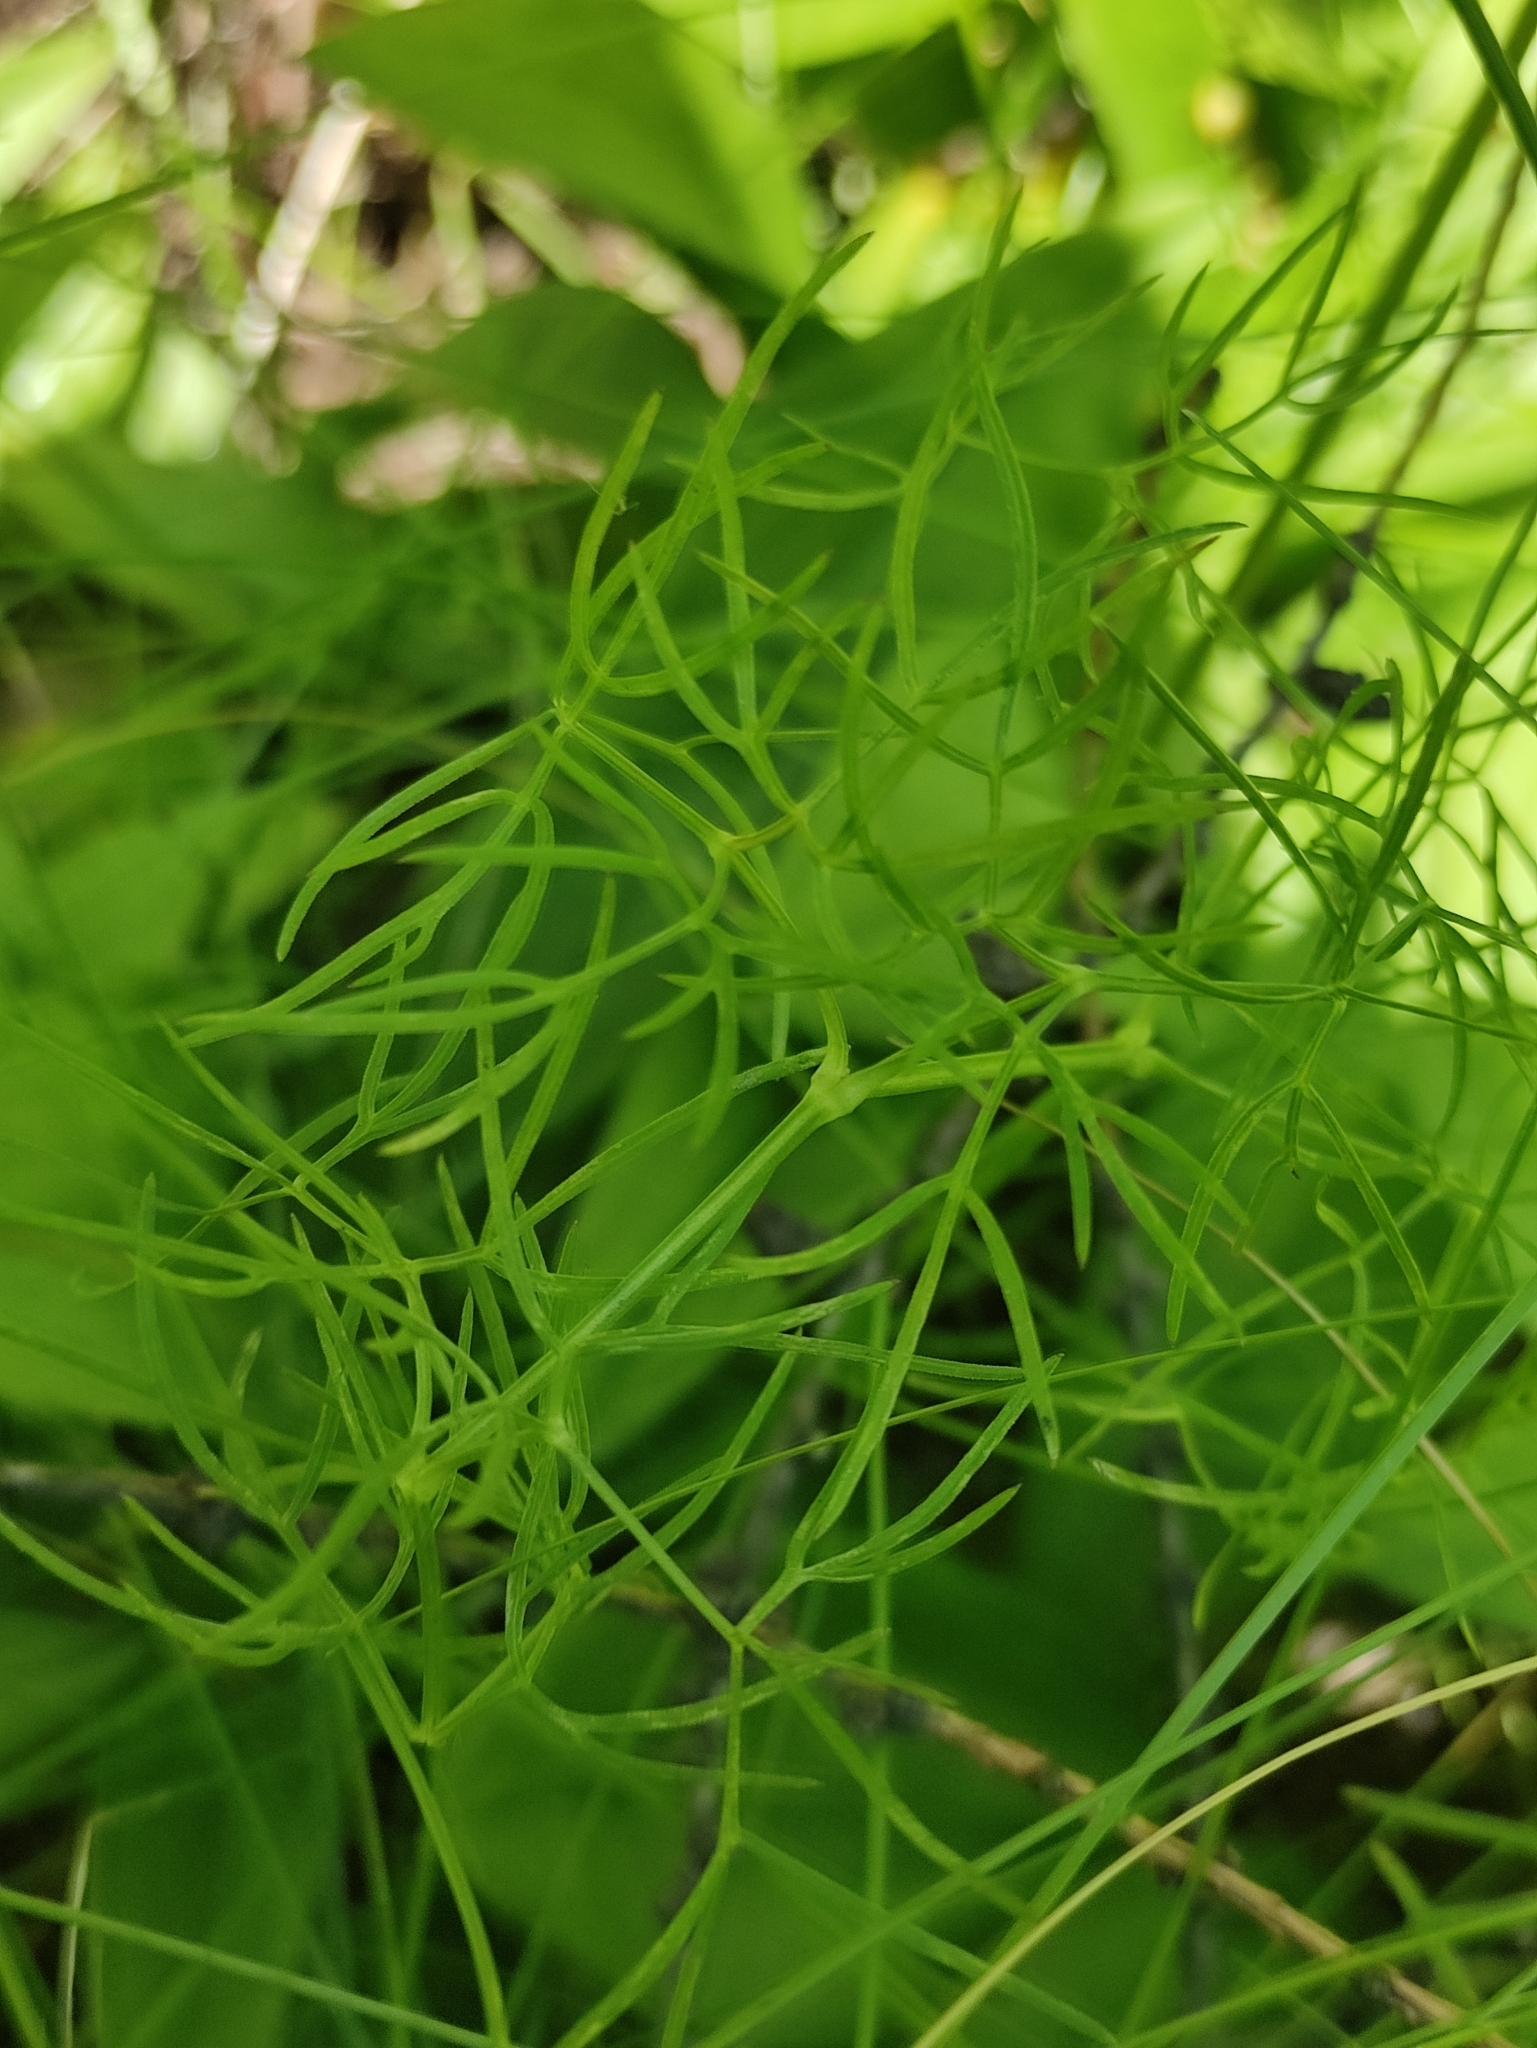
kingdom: Plantae
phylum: Tracheophyta
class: Magnoliopsida
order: Apiales
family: Apiaceae
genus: Ostericum
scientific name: Ostericum tenuifolium
